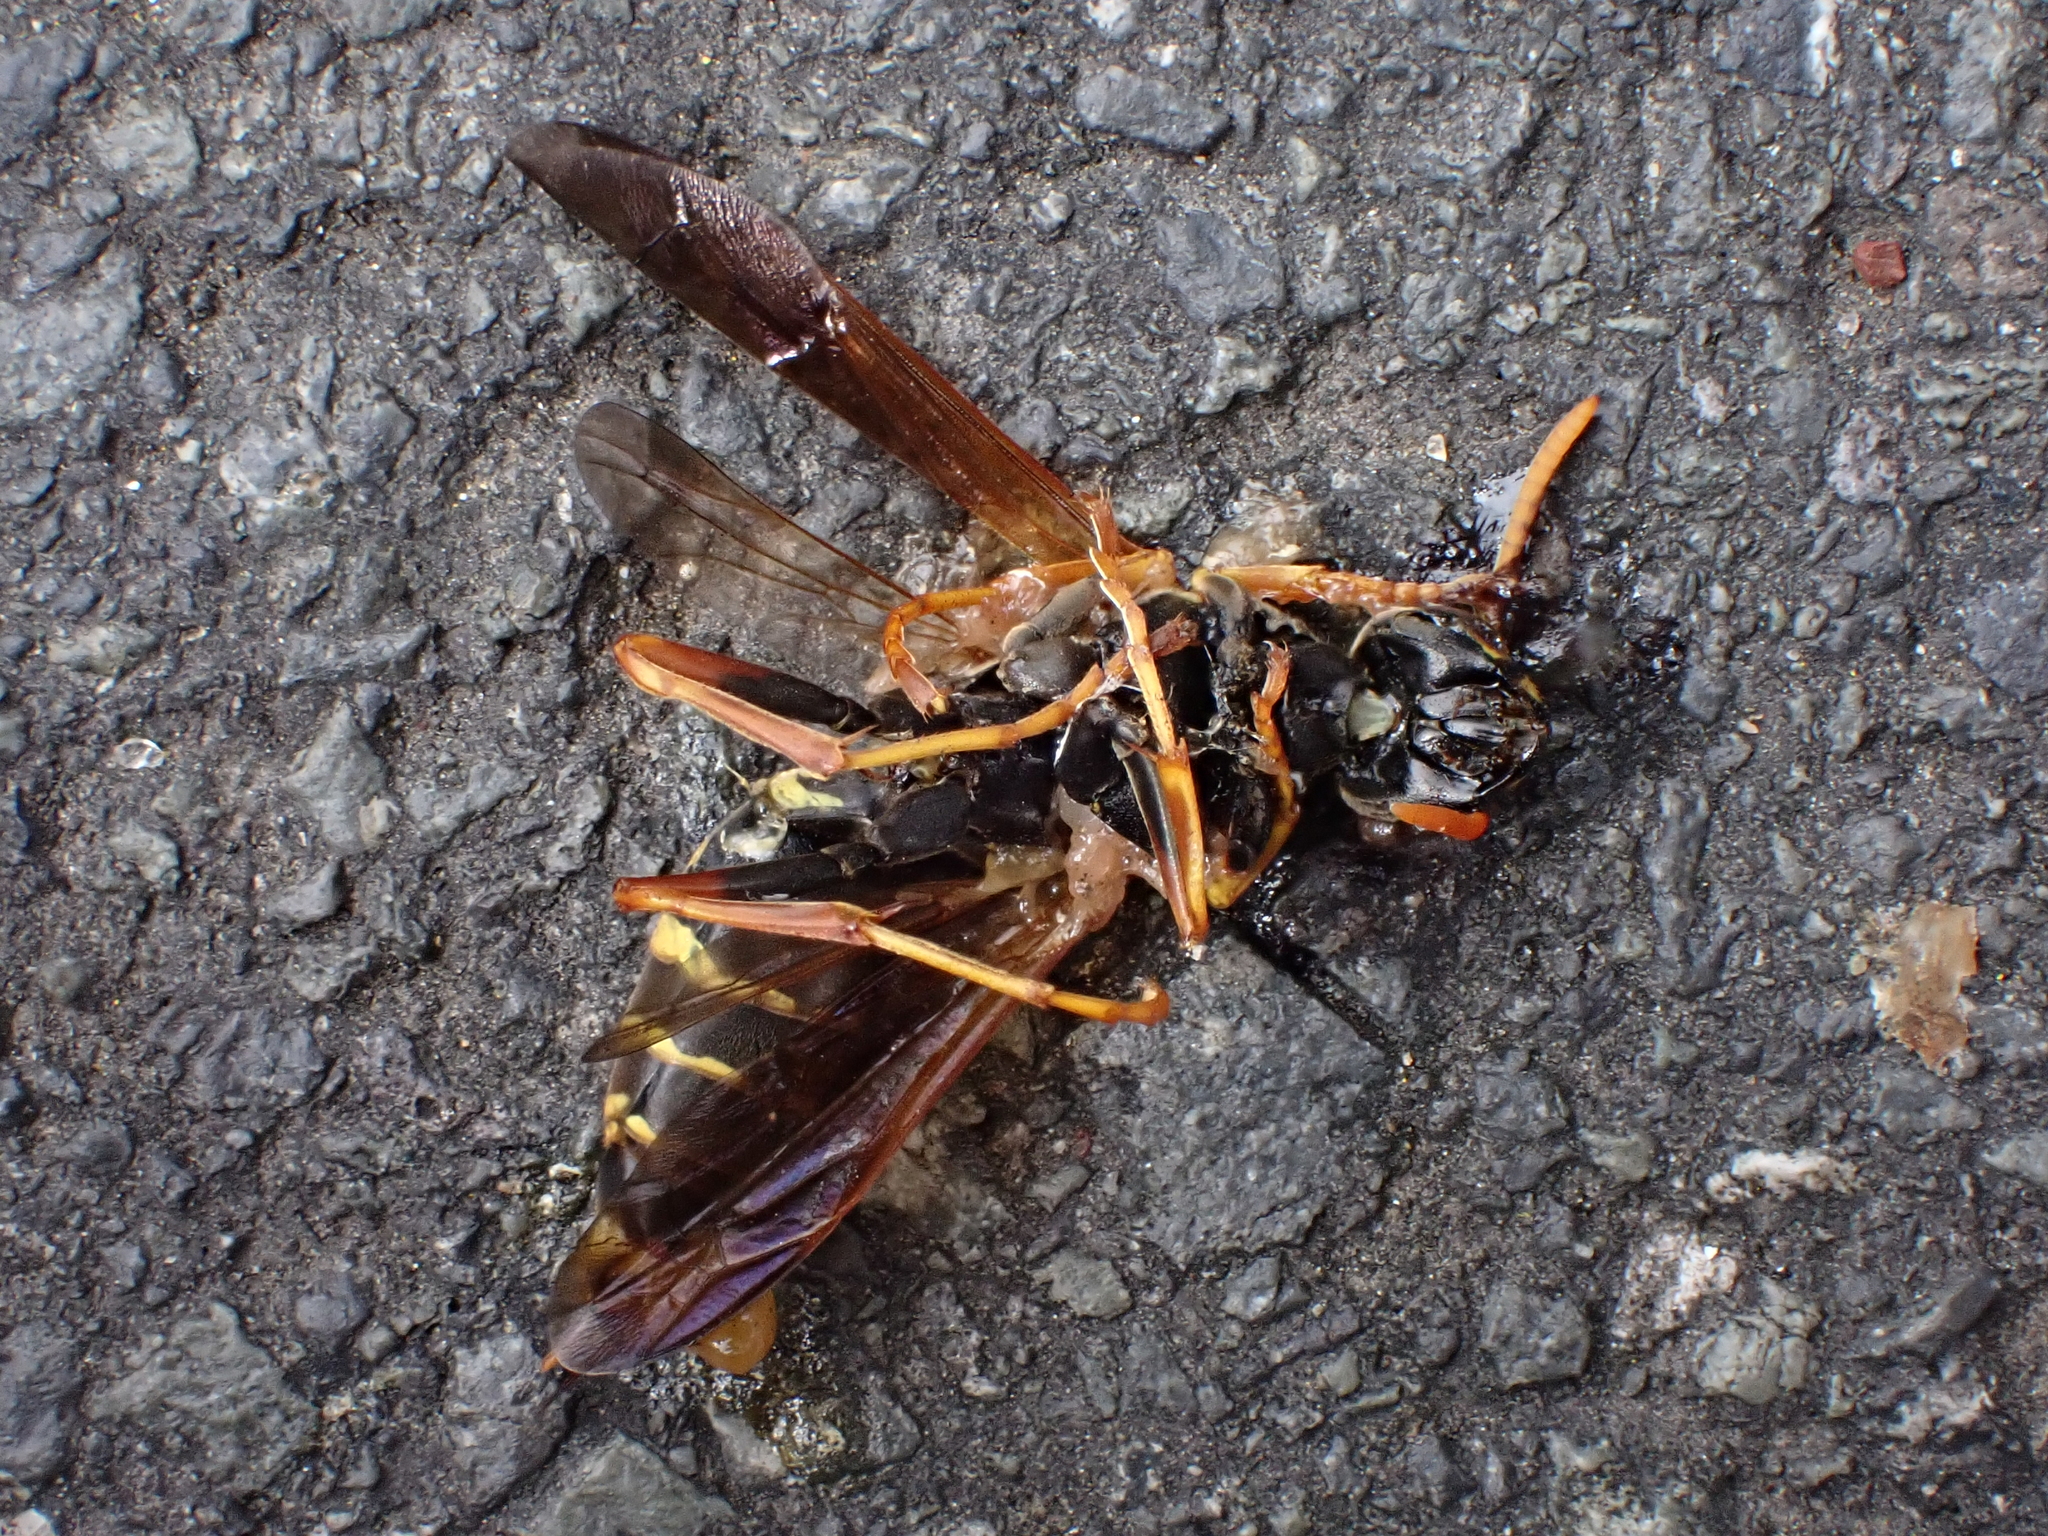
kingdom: Animalia
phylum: Arthropoda
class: Insecta
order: Hymenoptera
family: Eumenidae
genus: Polistes
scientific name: Polistes chinensis
